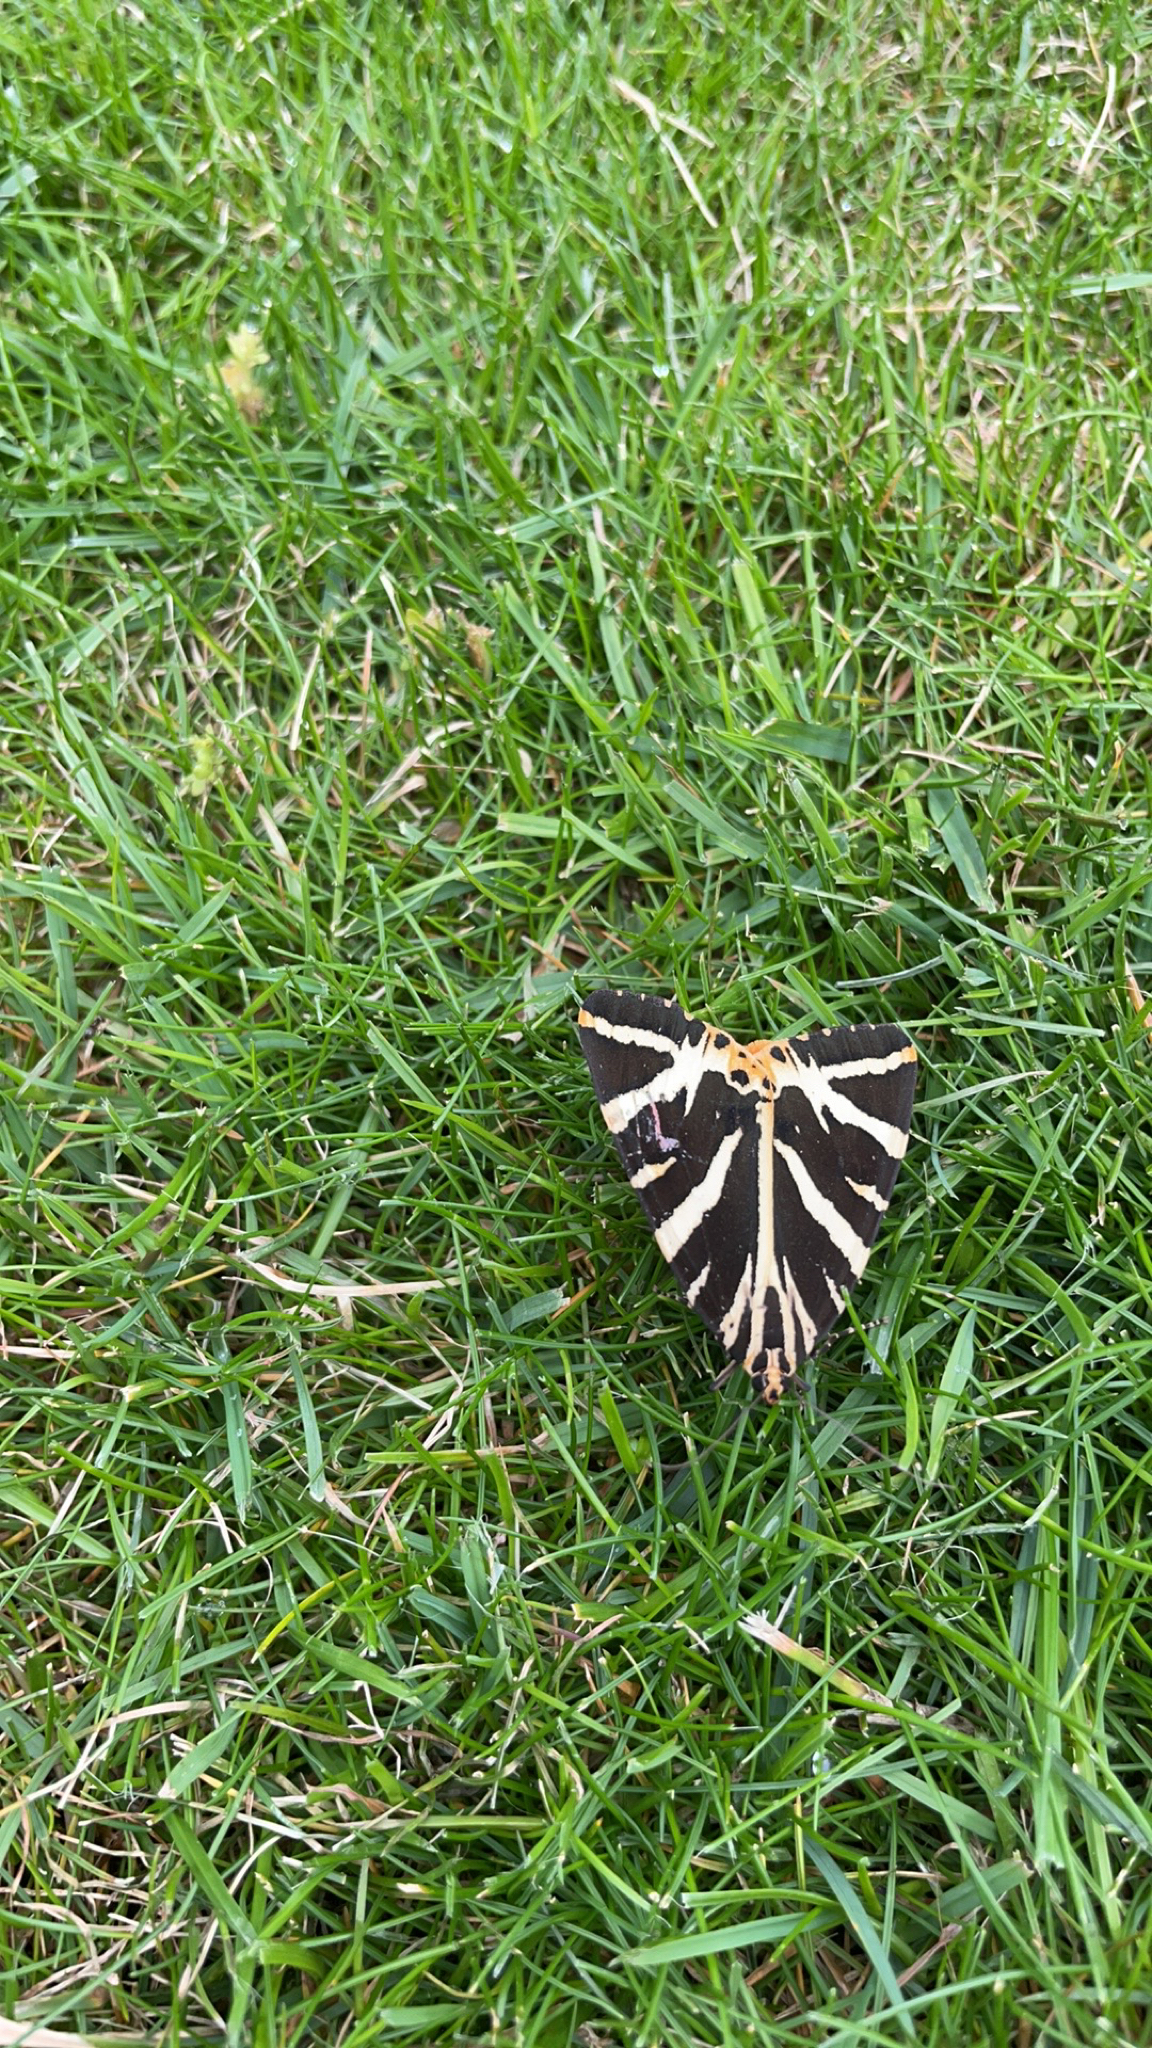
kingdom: Animalia
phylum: Arthropoda
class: Insecta
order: Lepidoptera
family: Erebidae
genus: Euplagia
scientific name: Euplagia quadripunctaria
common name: Jersey tiger
